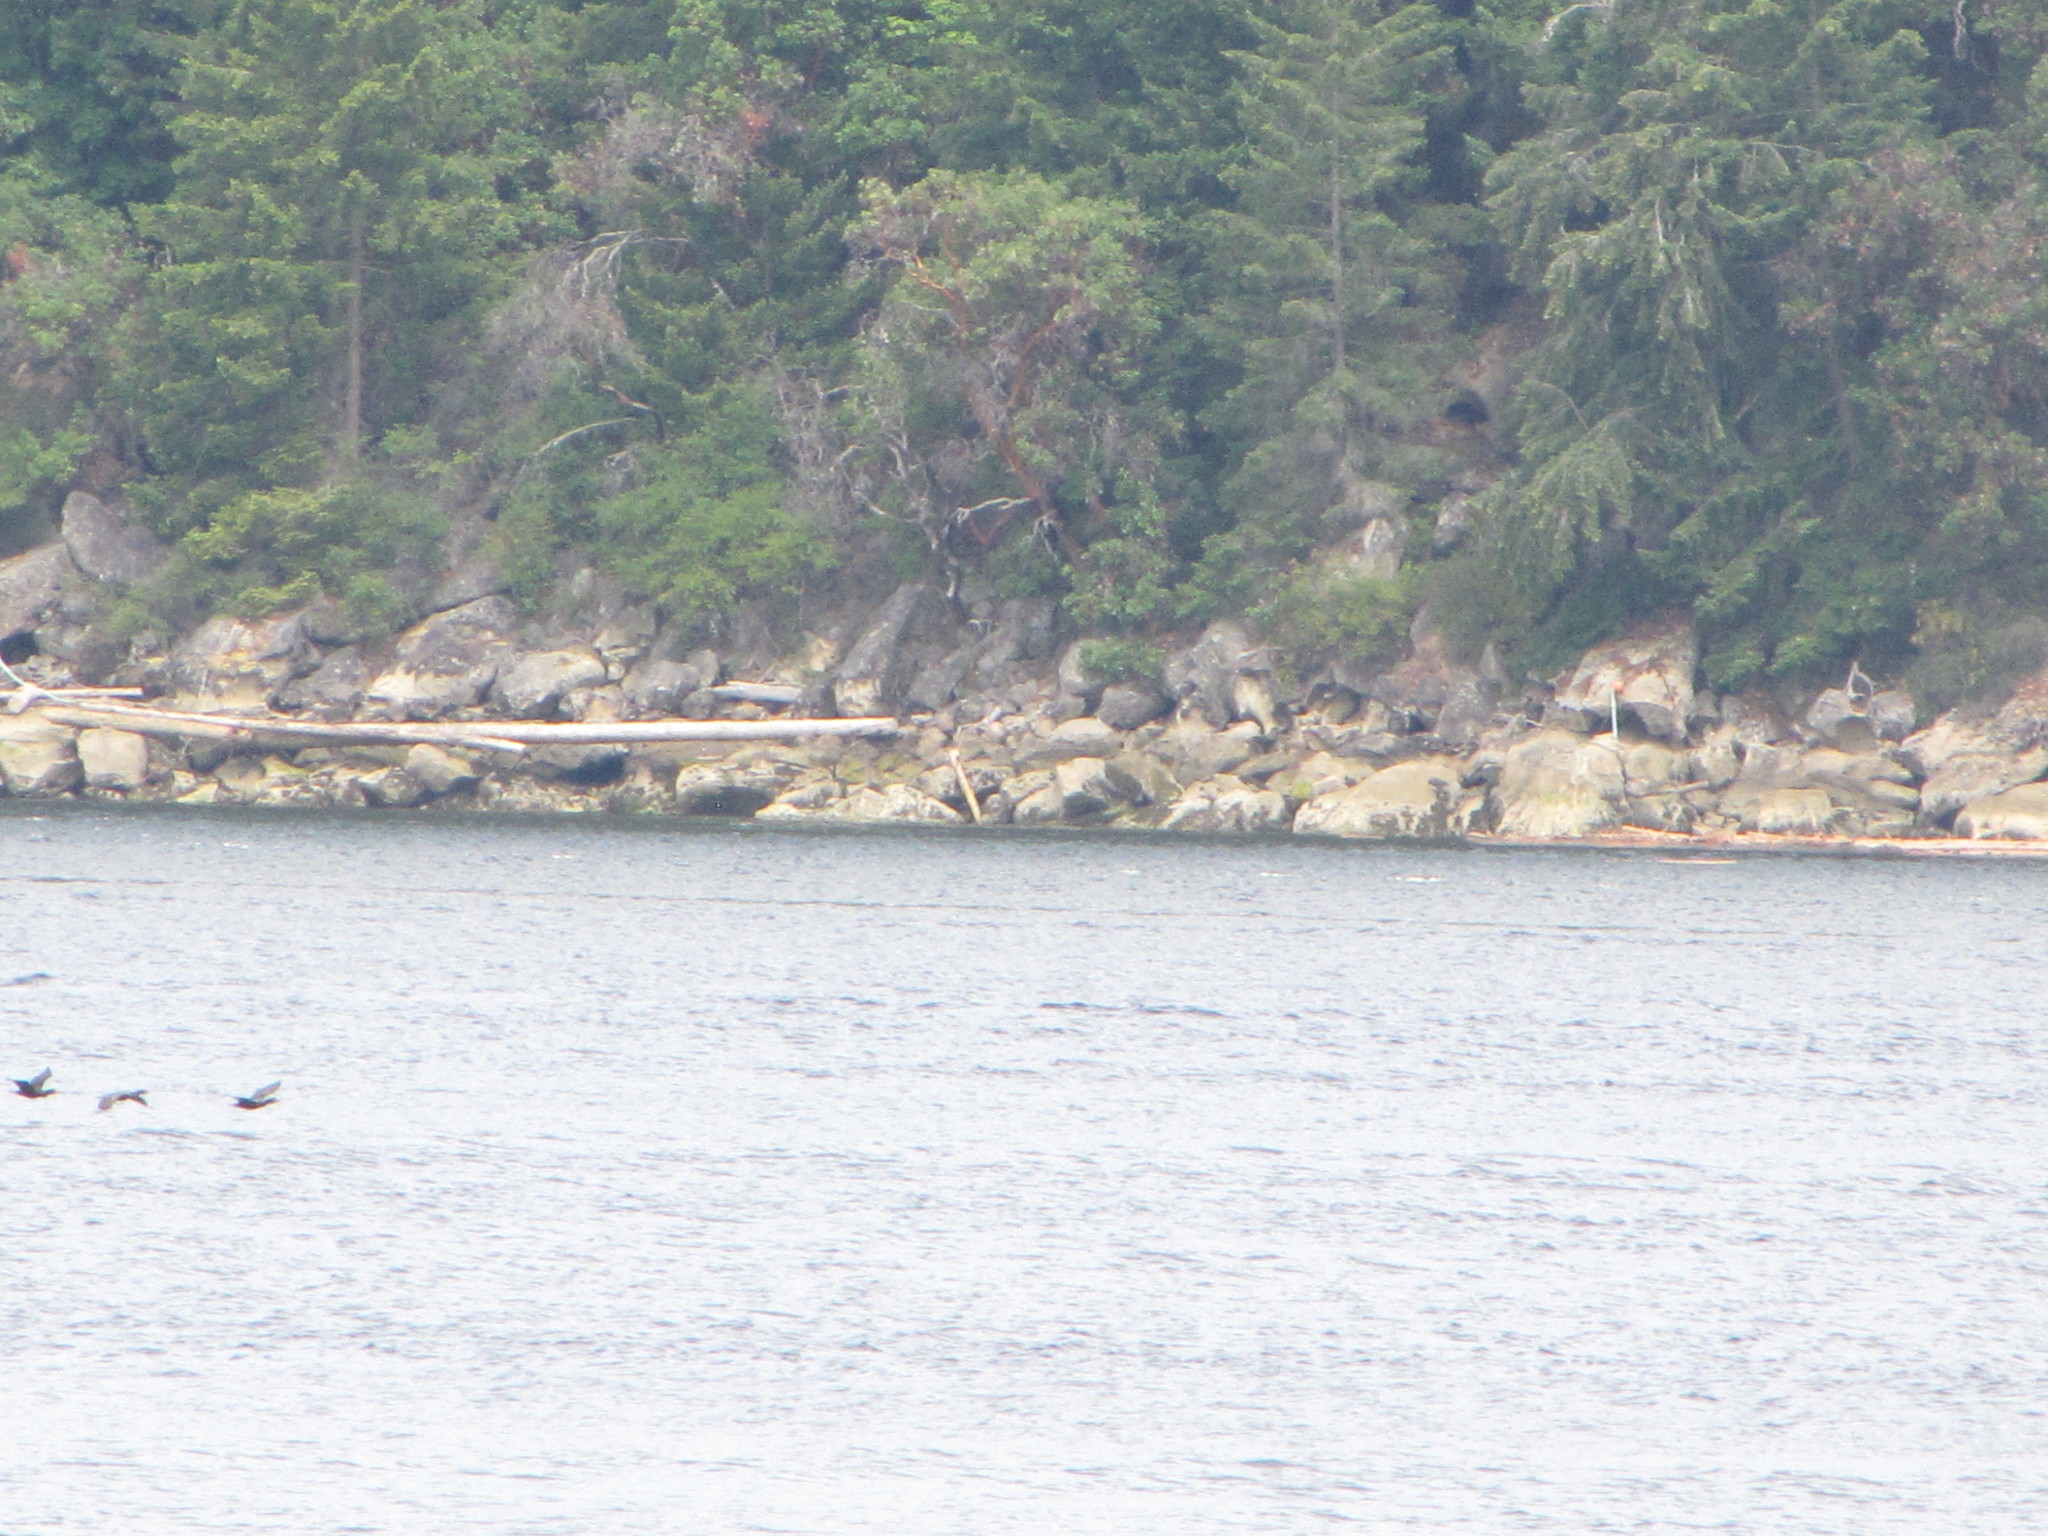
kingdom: Animalia
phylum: Chordata
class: Aves
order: Suliformes
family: Phalacrocoracidae
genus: Phalacrocorax
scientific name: Phalacrocorax auritus
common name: Double-crested cormorant
